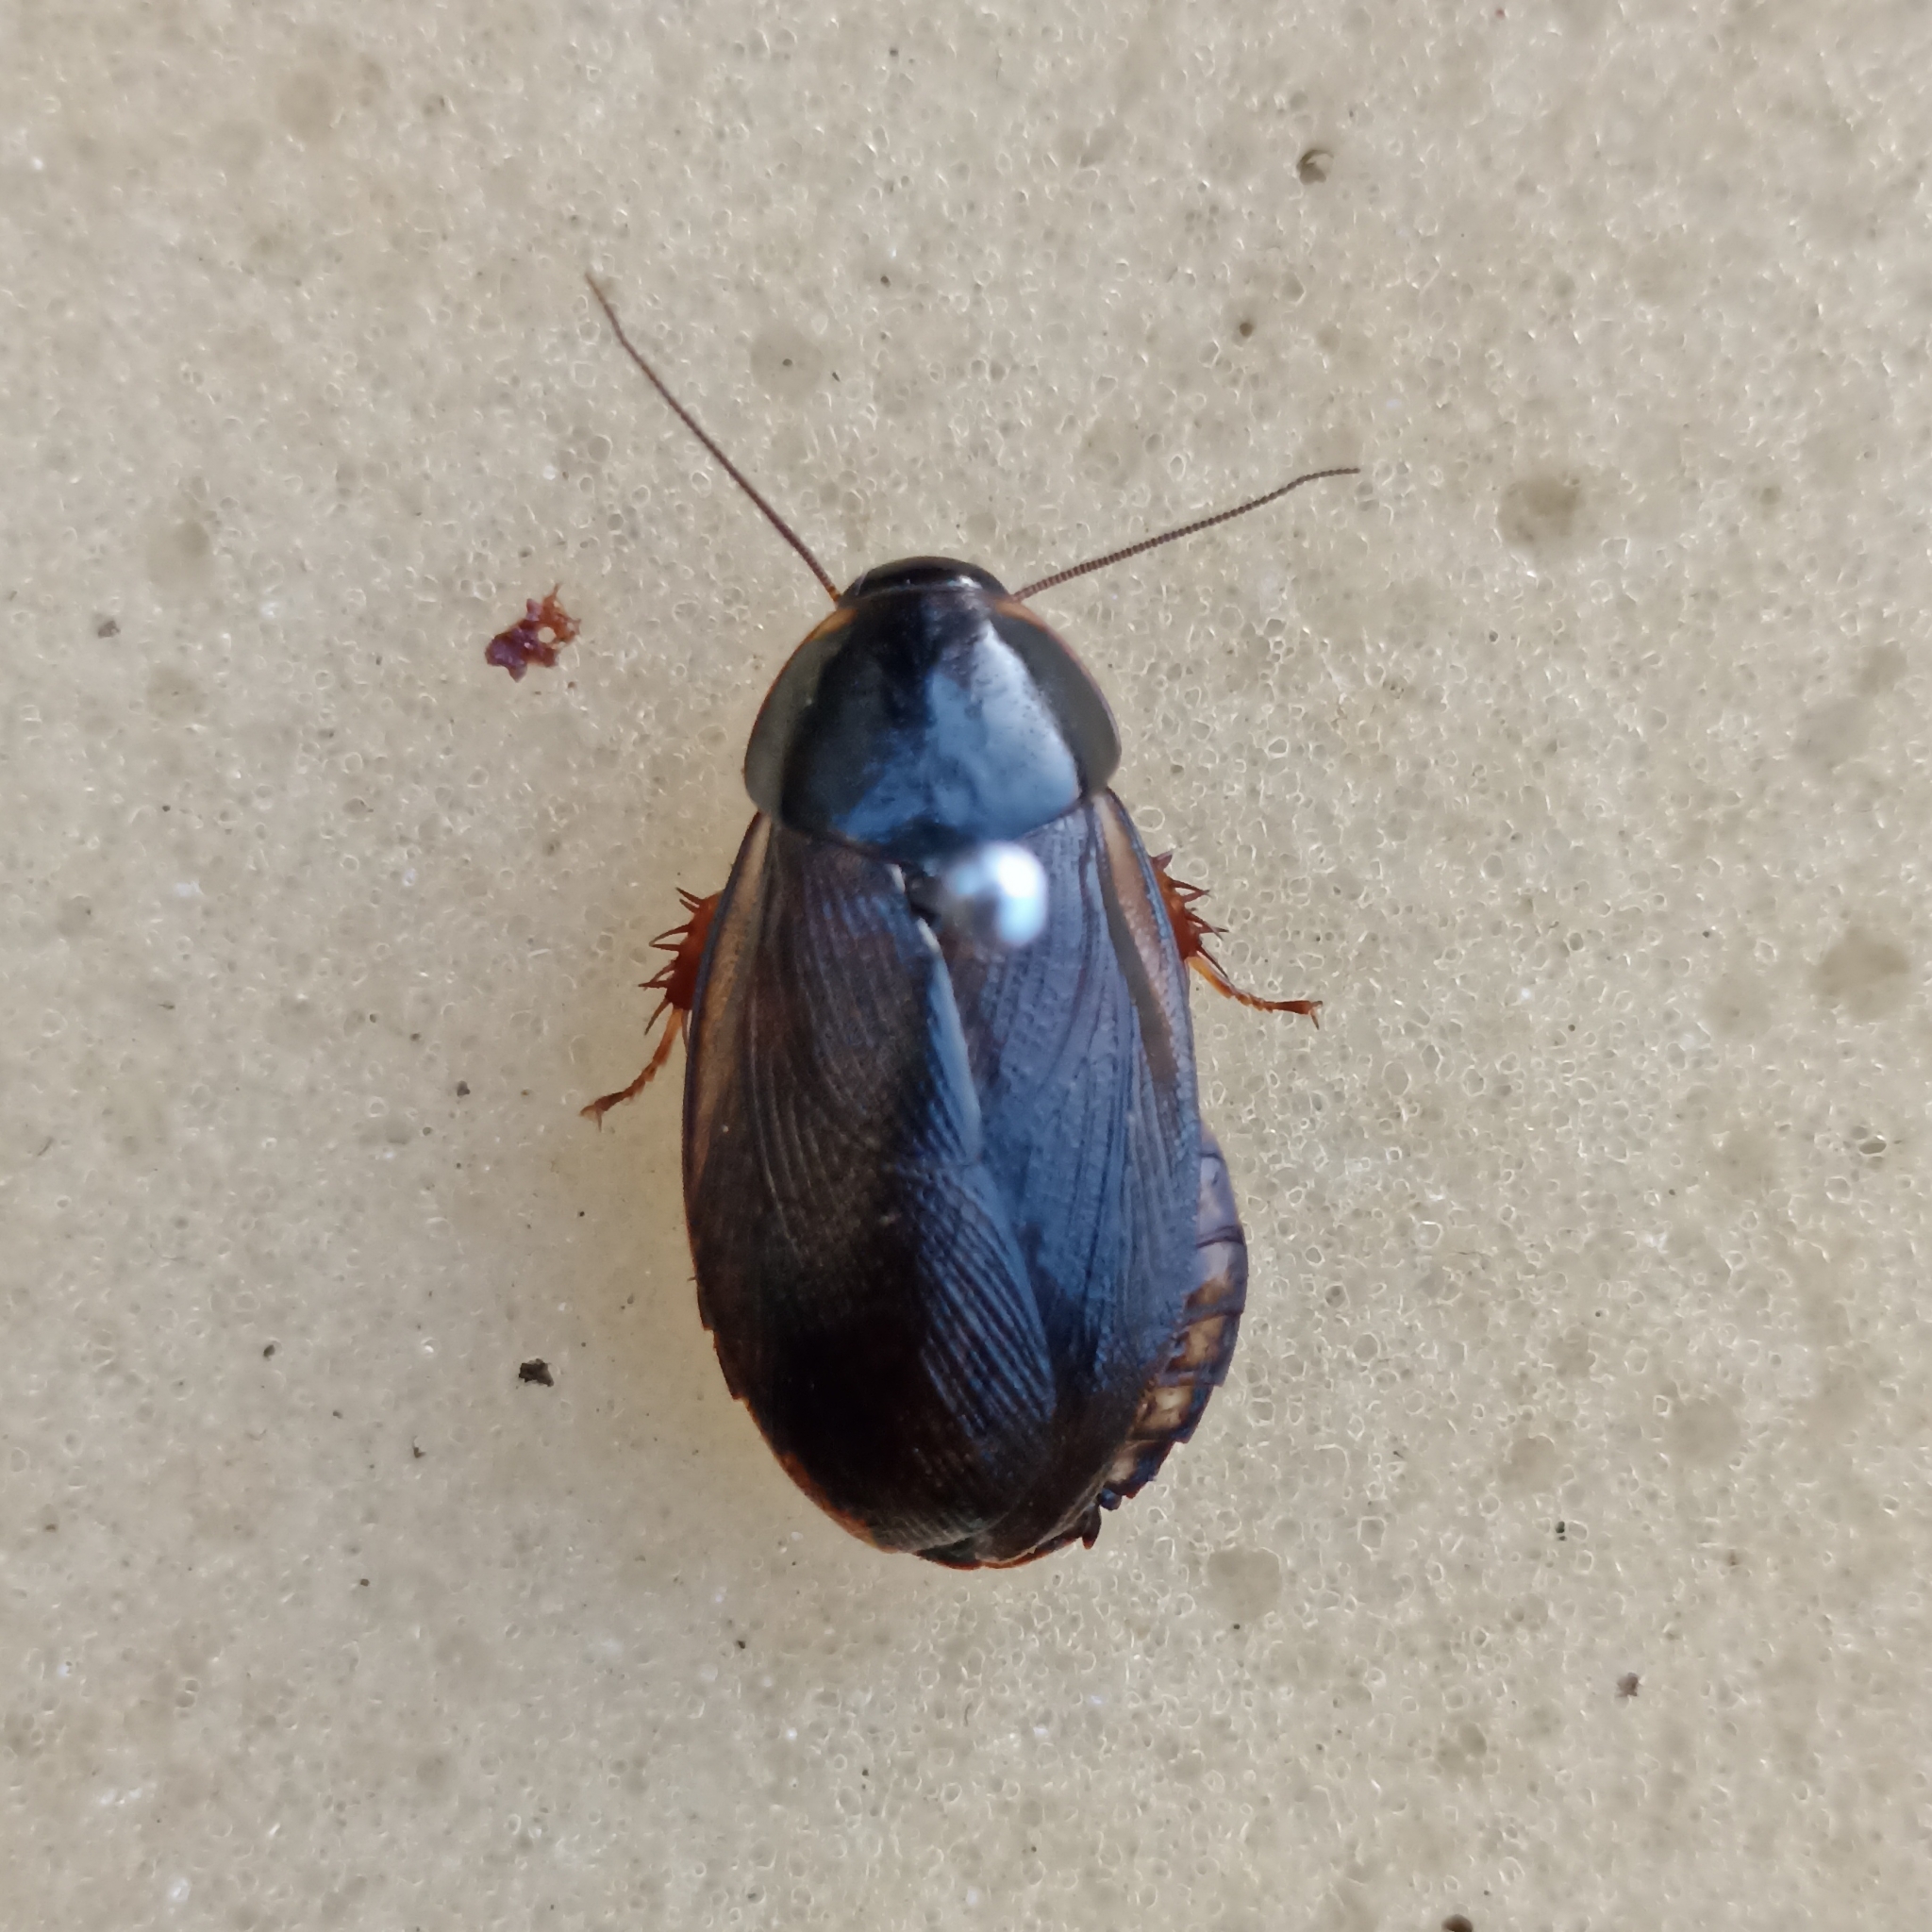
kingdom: Animalia
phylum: Arthropoda
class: Insecta
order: Blattodea
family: Blaberidae
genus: Pycnoscelus
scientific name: Pycnoscelus surinamensis
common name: Surinam cockroach
